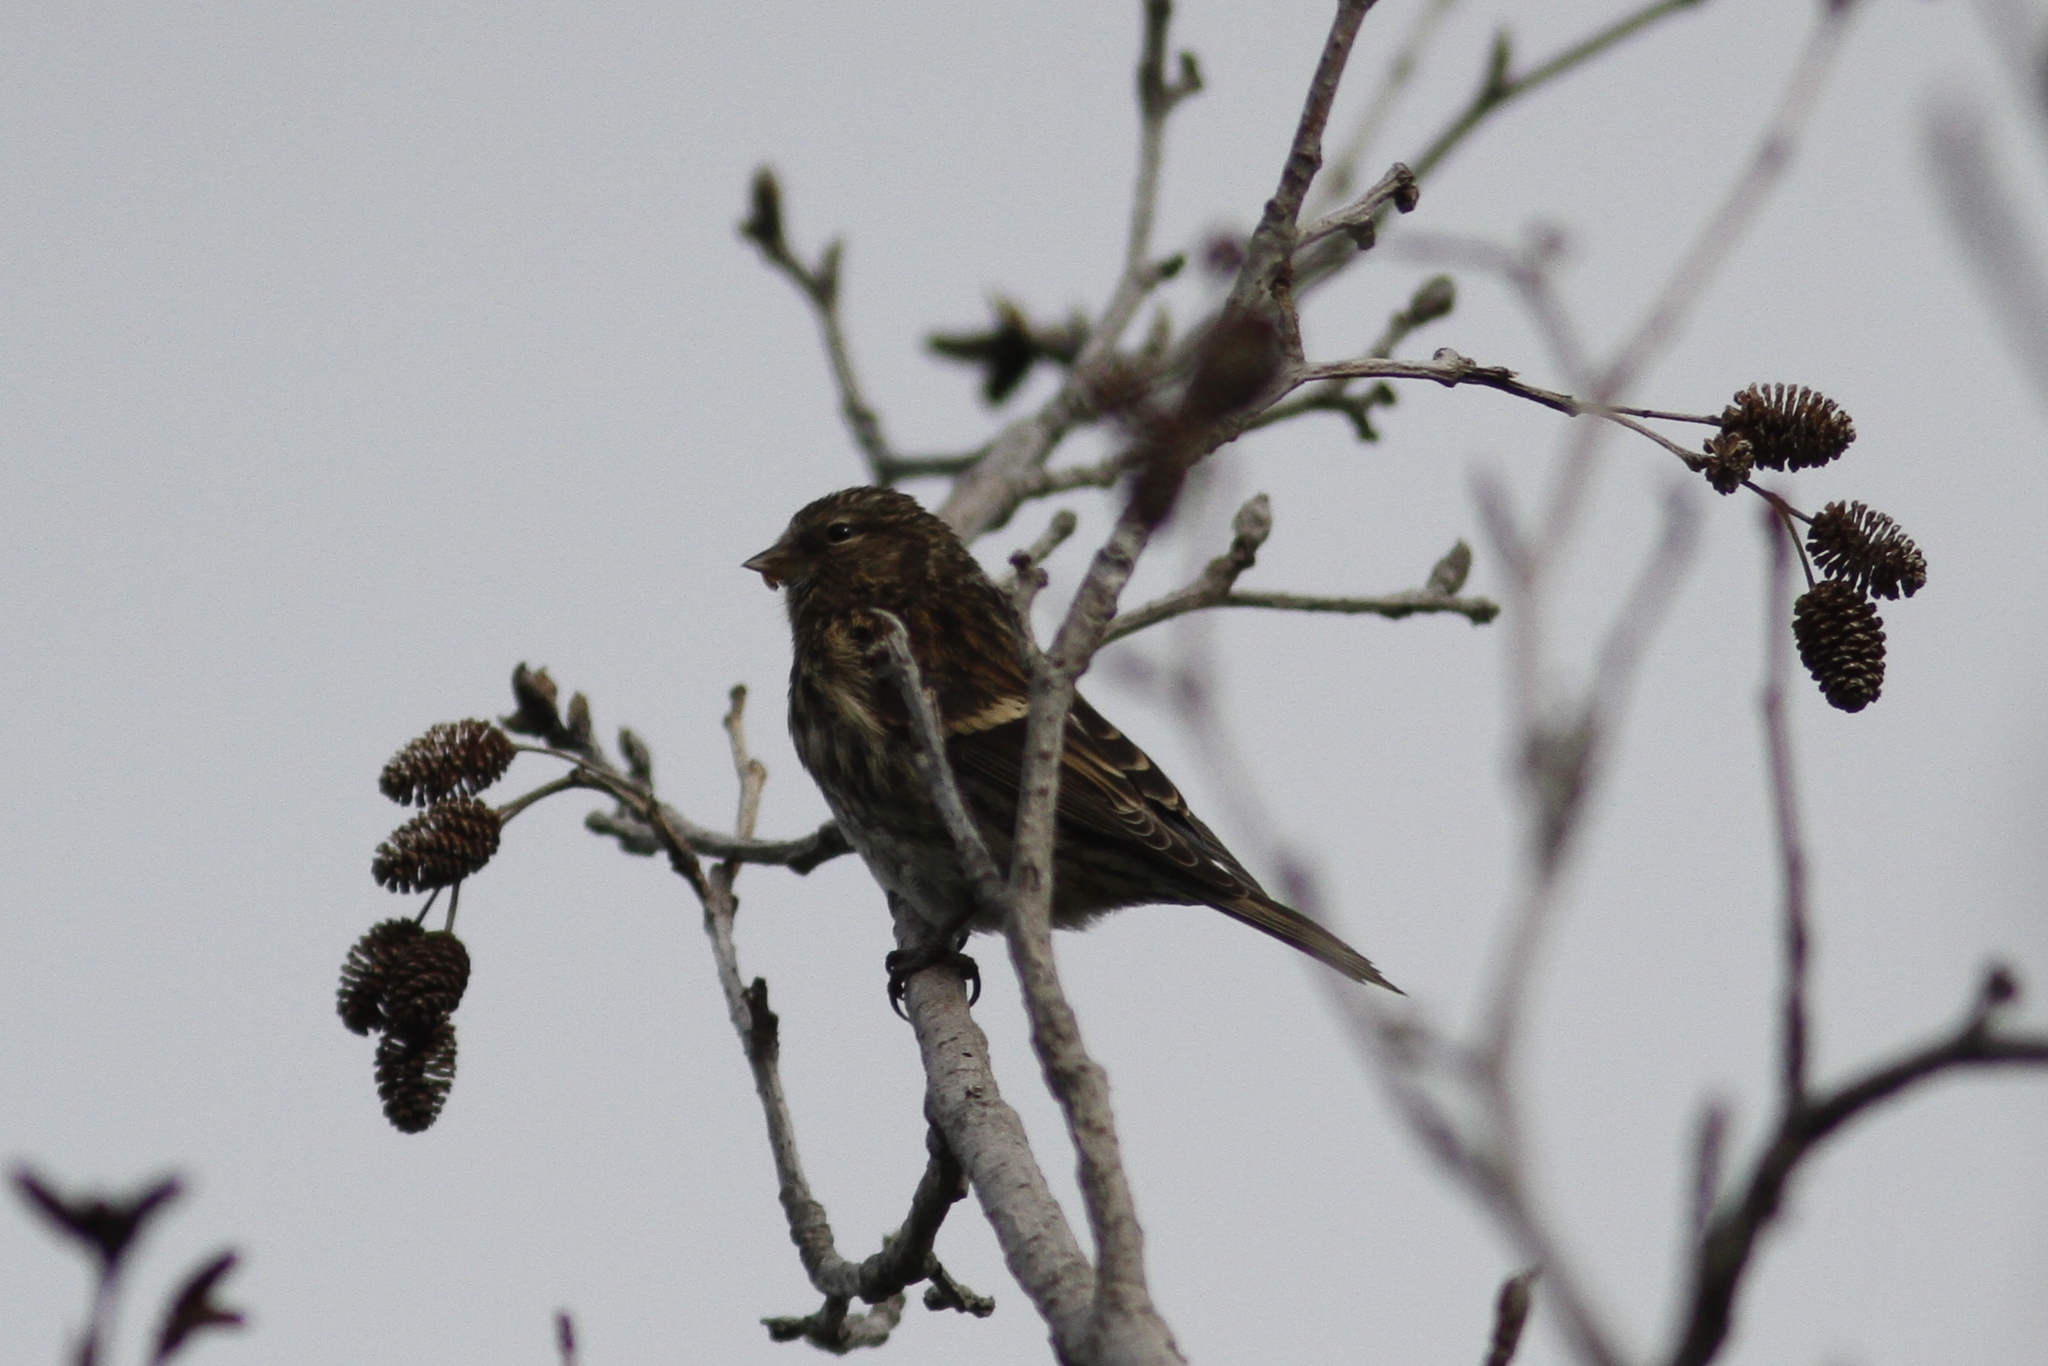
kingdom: Animalia
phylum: Chordata
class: Aves
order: Passeriformes
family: Fringillidae
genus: Spinus
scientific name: Spinus pinus
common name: Pine siskin
